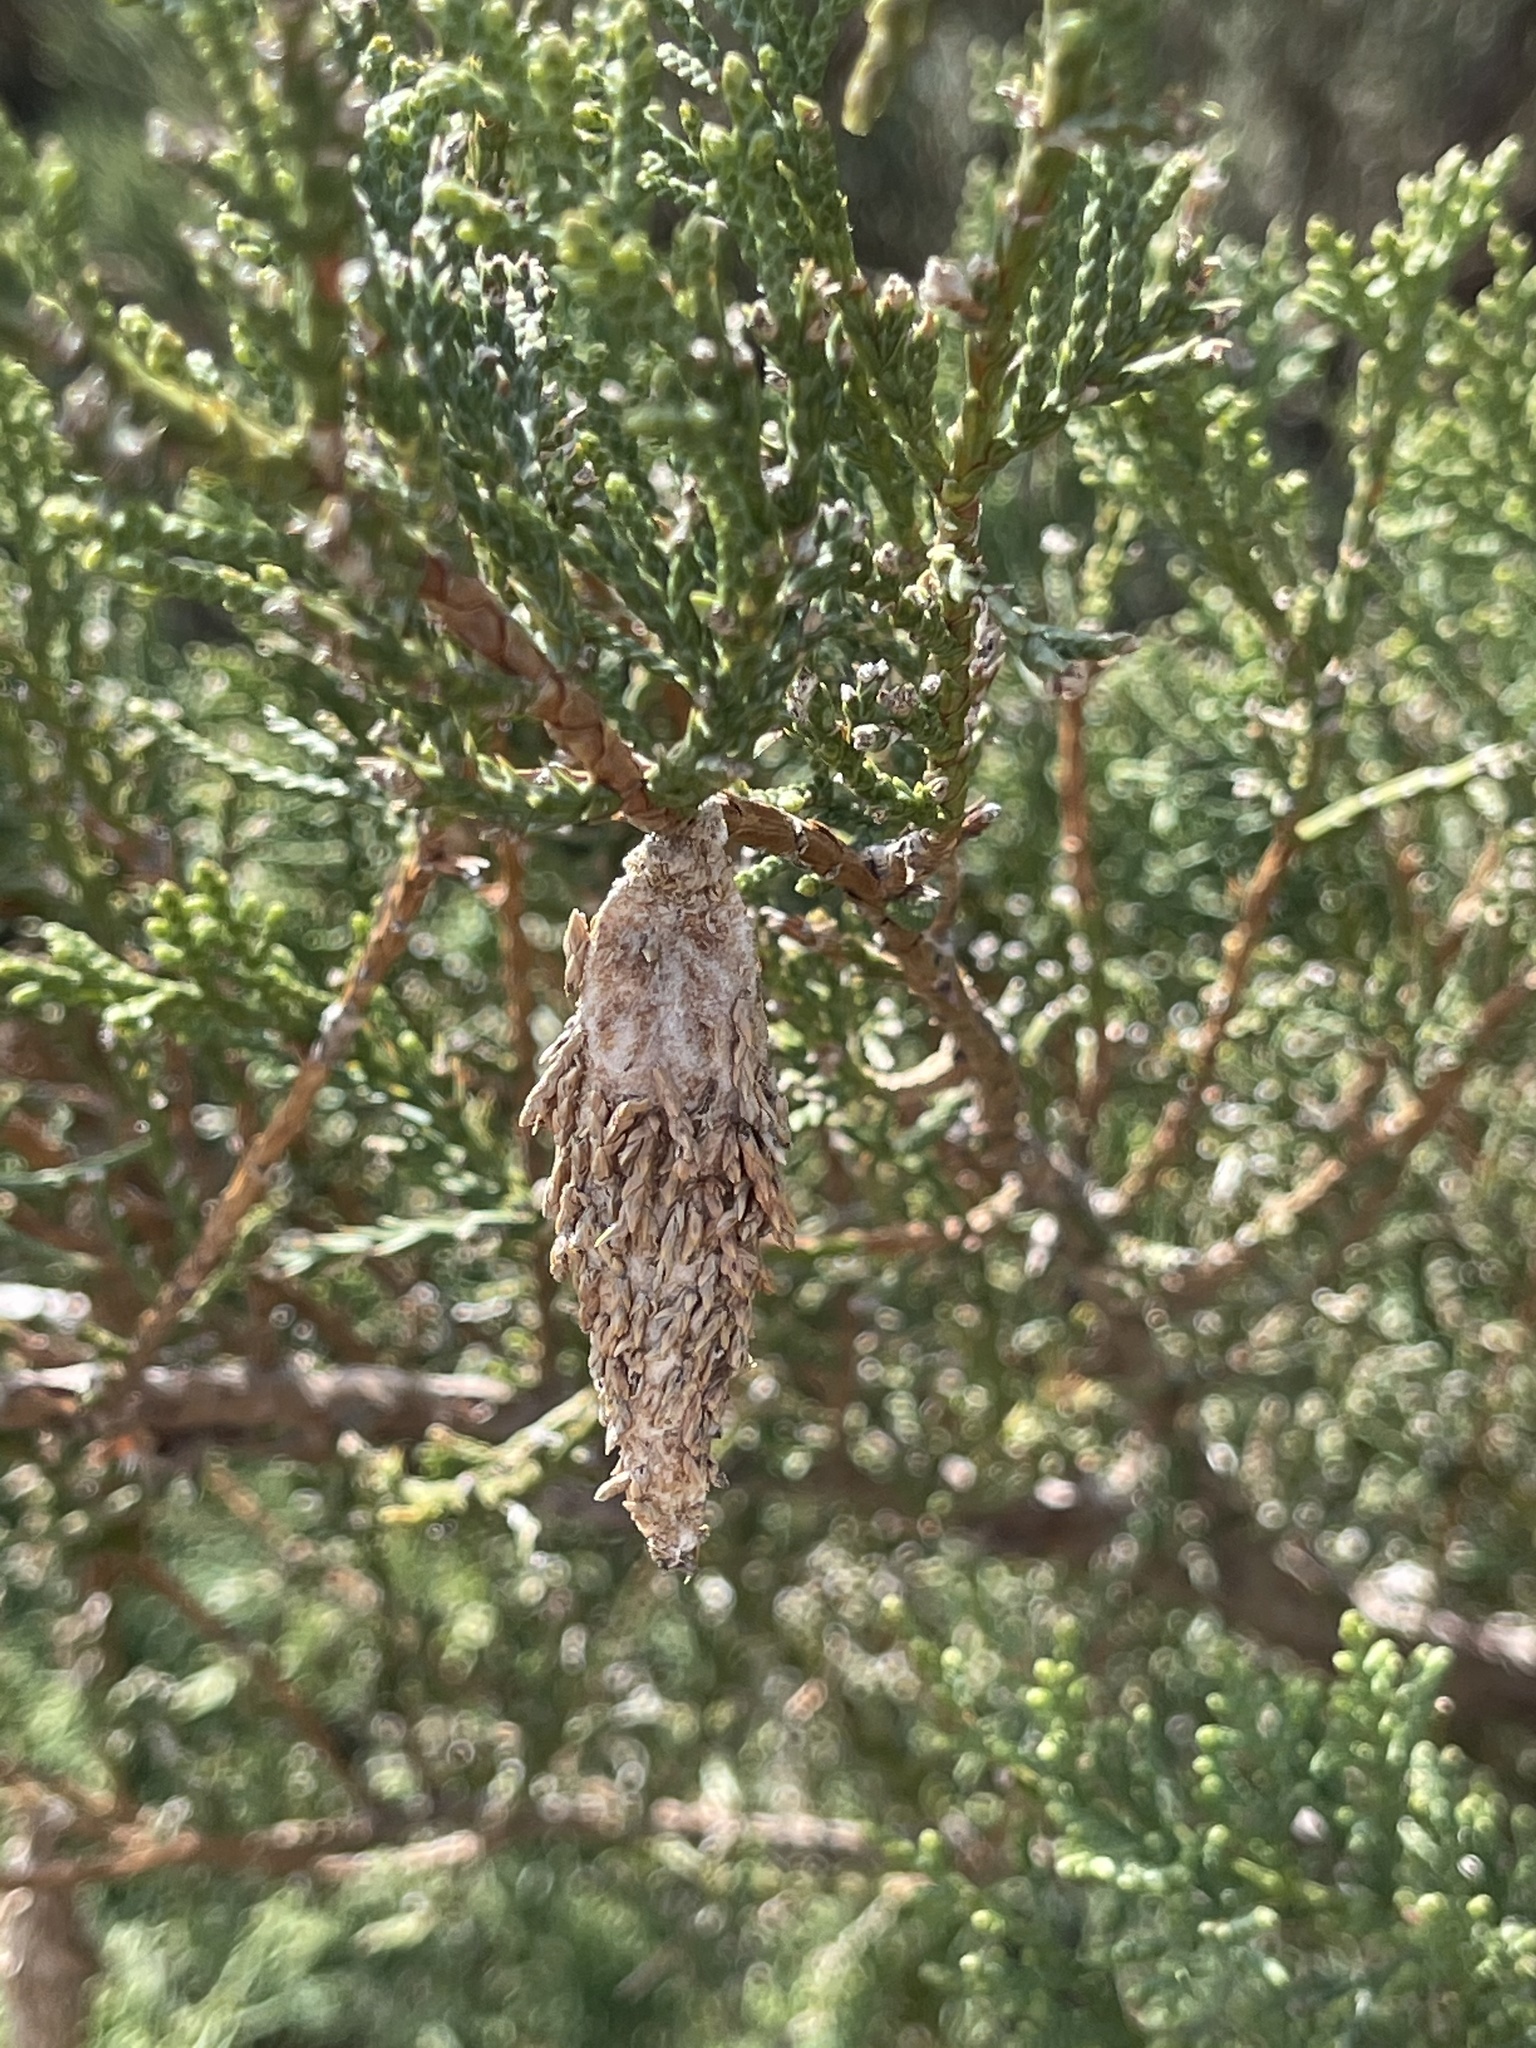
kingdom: Animalia
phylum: Arthropoda
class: Insecta
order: Lepidoptera
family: Psychidae
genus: Thyridopteryx
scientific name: Thyridopteryx ephemeraeformis
